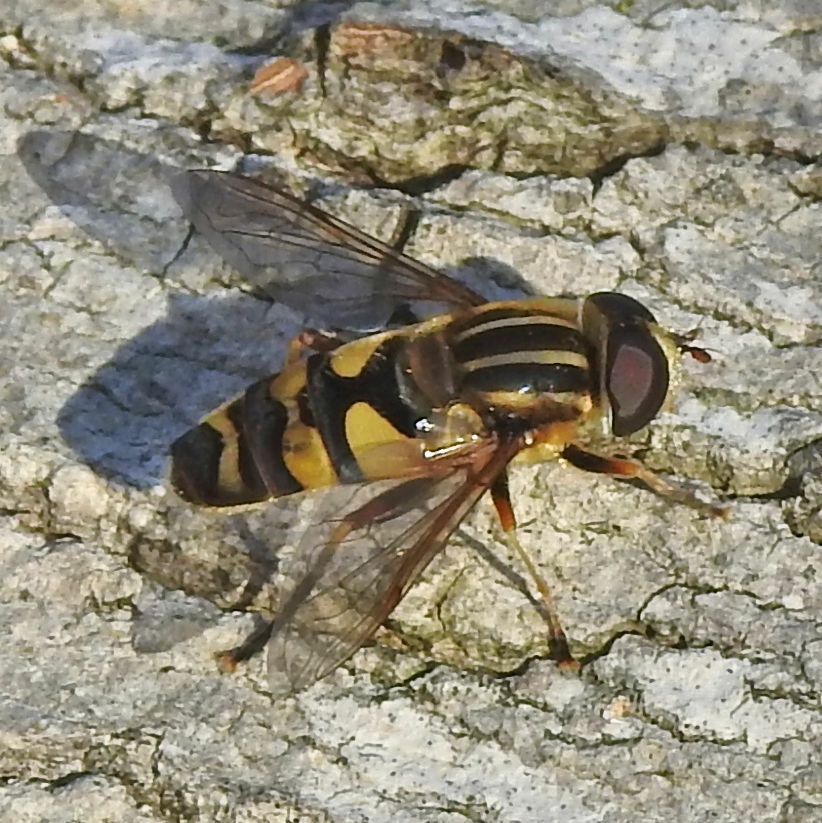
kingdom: Animalia
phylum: Arthropoda
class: Insecta
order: Diptera
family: Syrphidae
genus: Helophilus
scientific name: Helophilus fasciatus
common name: Narrow-headed marsh fly
